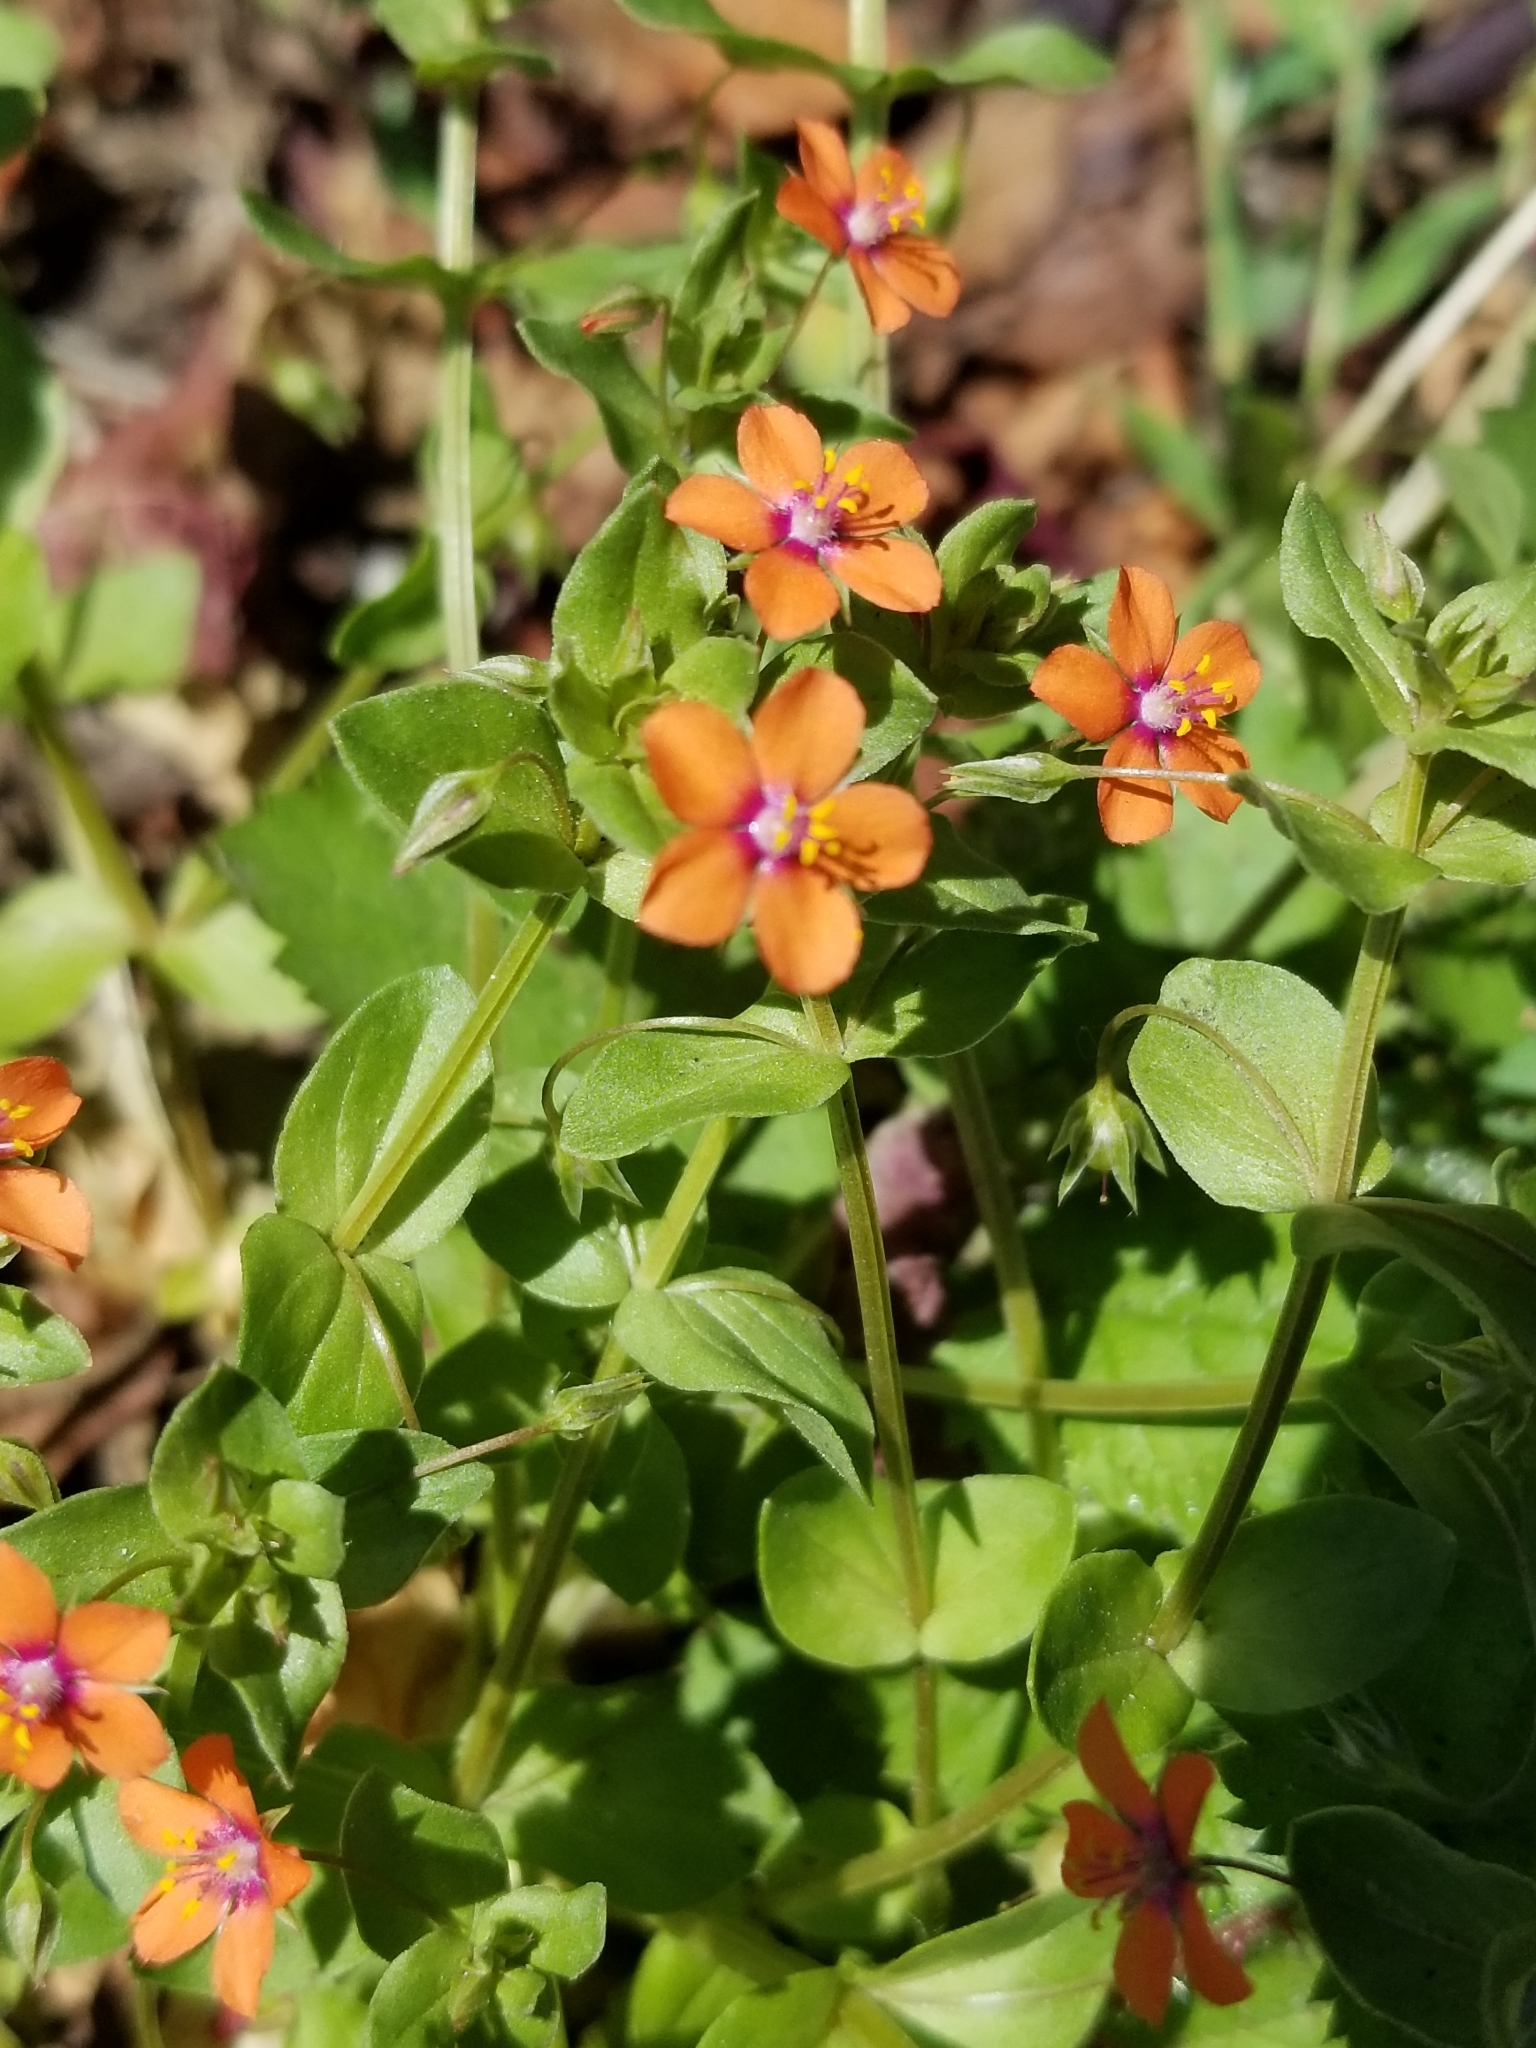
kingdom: Plantae
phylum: Tracheophyta
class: Magnoliopsida
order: Ericales
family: Primulaceae
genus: Lysimachia
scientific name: Lysimachia arvensis
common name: Scarlet pimpernel
